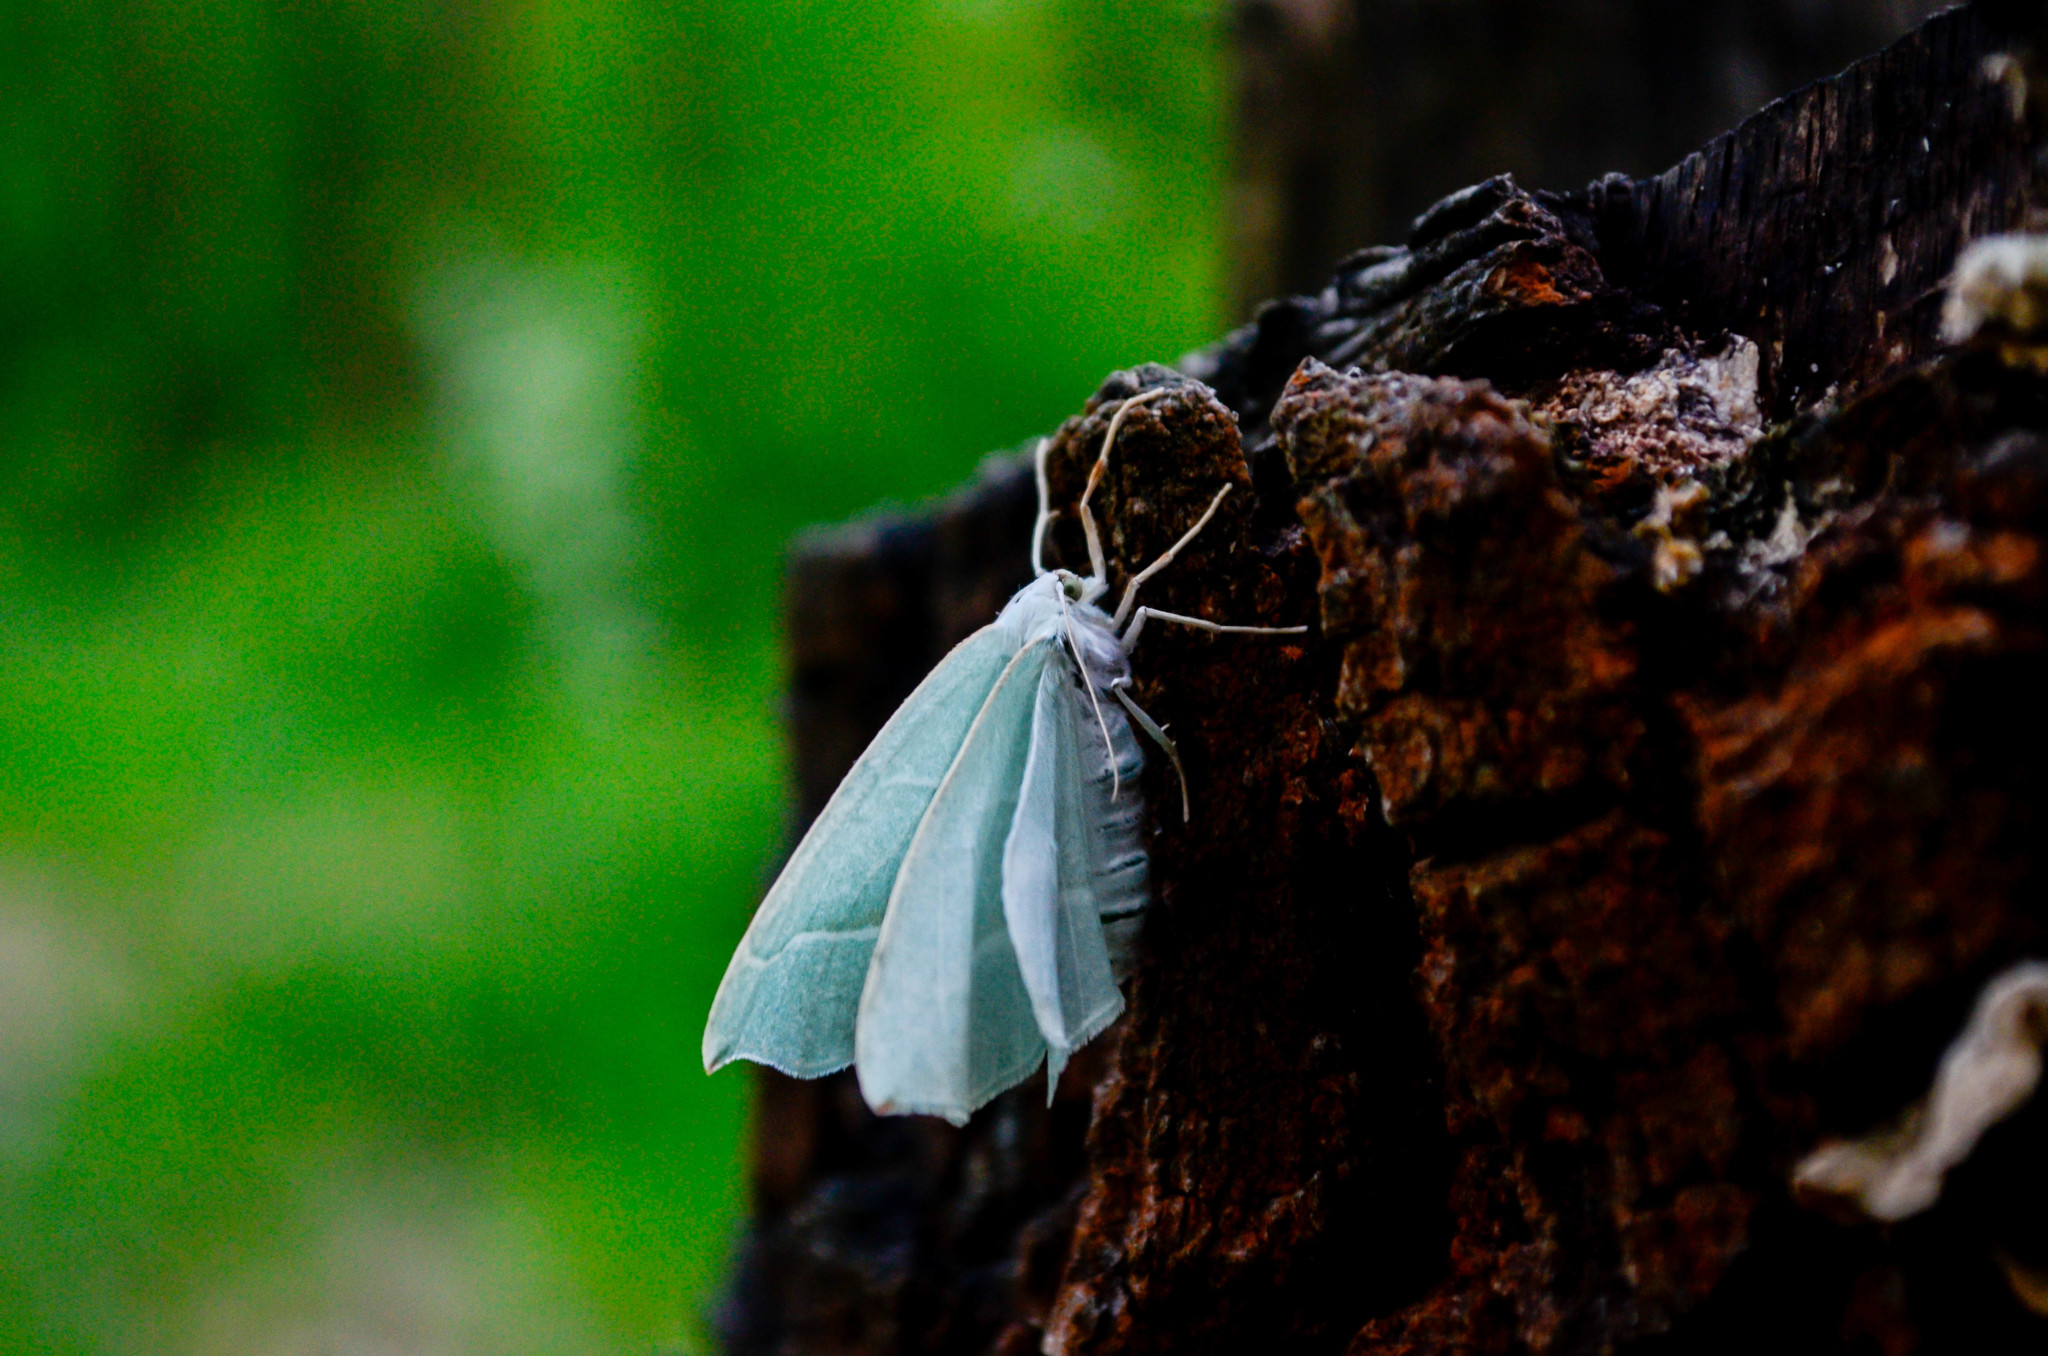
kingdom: Animalia
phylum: Arthropoda
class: Insecta
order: Lepidoptera
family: Geometridae
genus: Campaea
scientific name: Campaea margaritaria
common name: Light emerald
